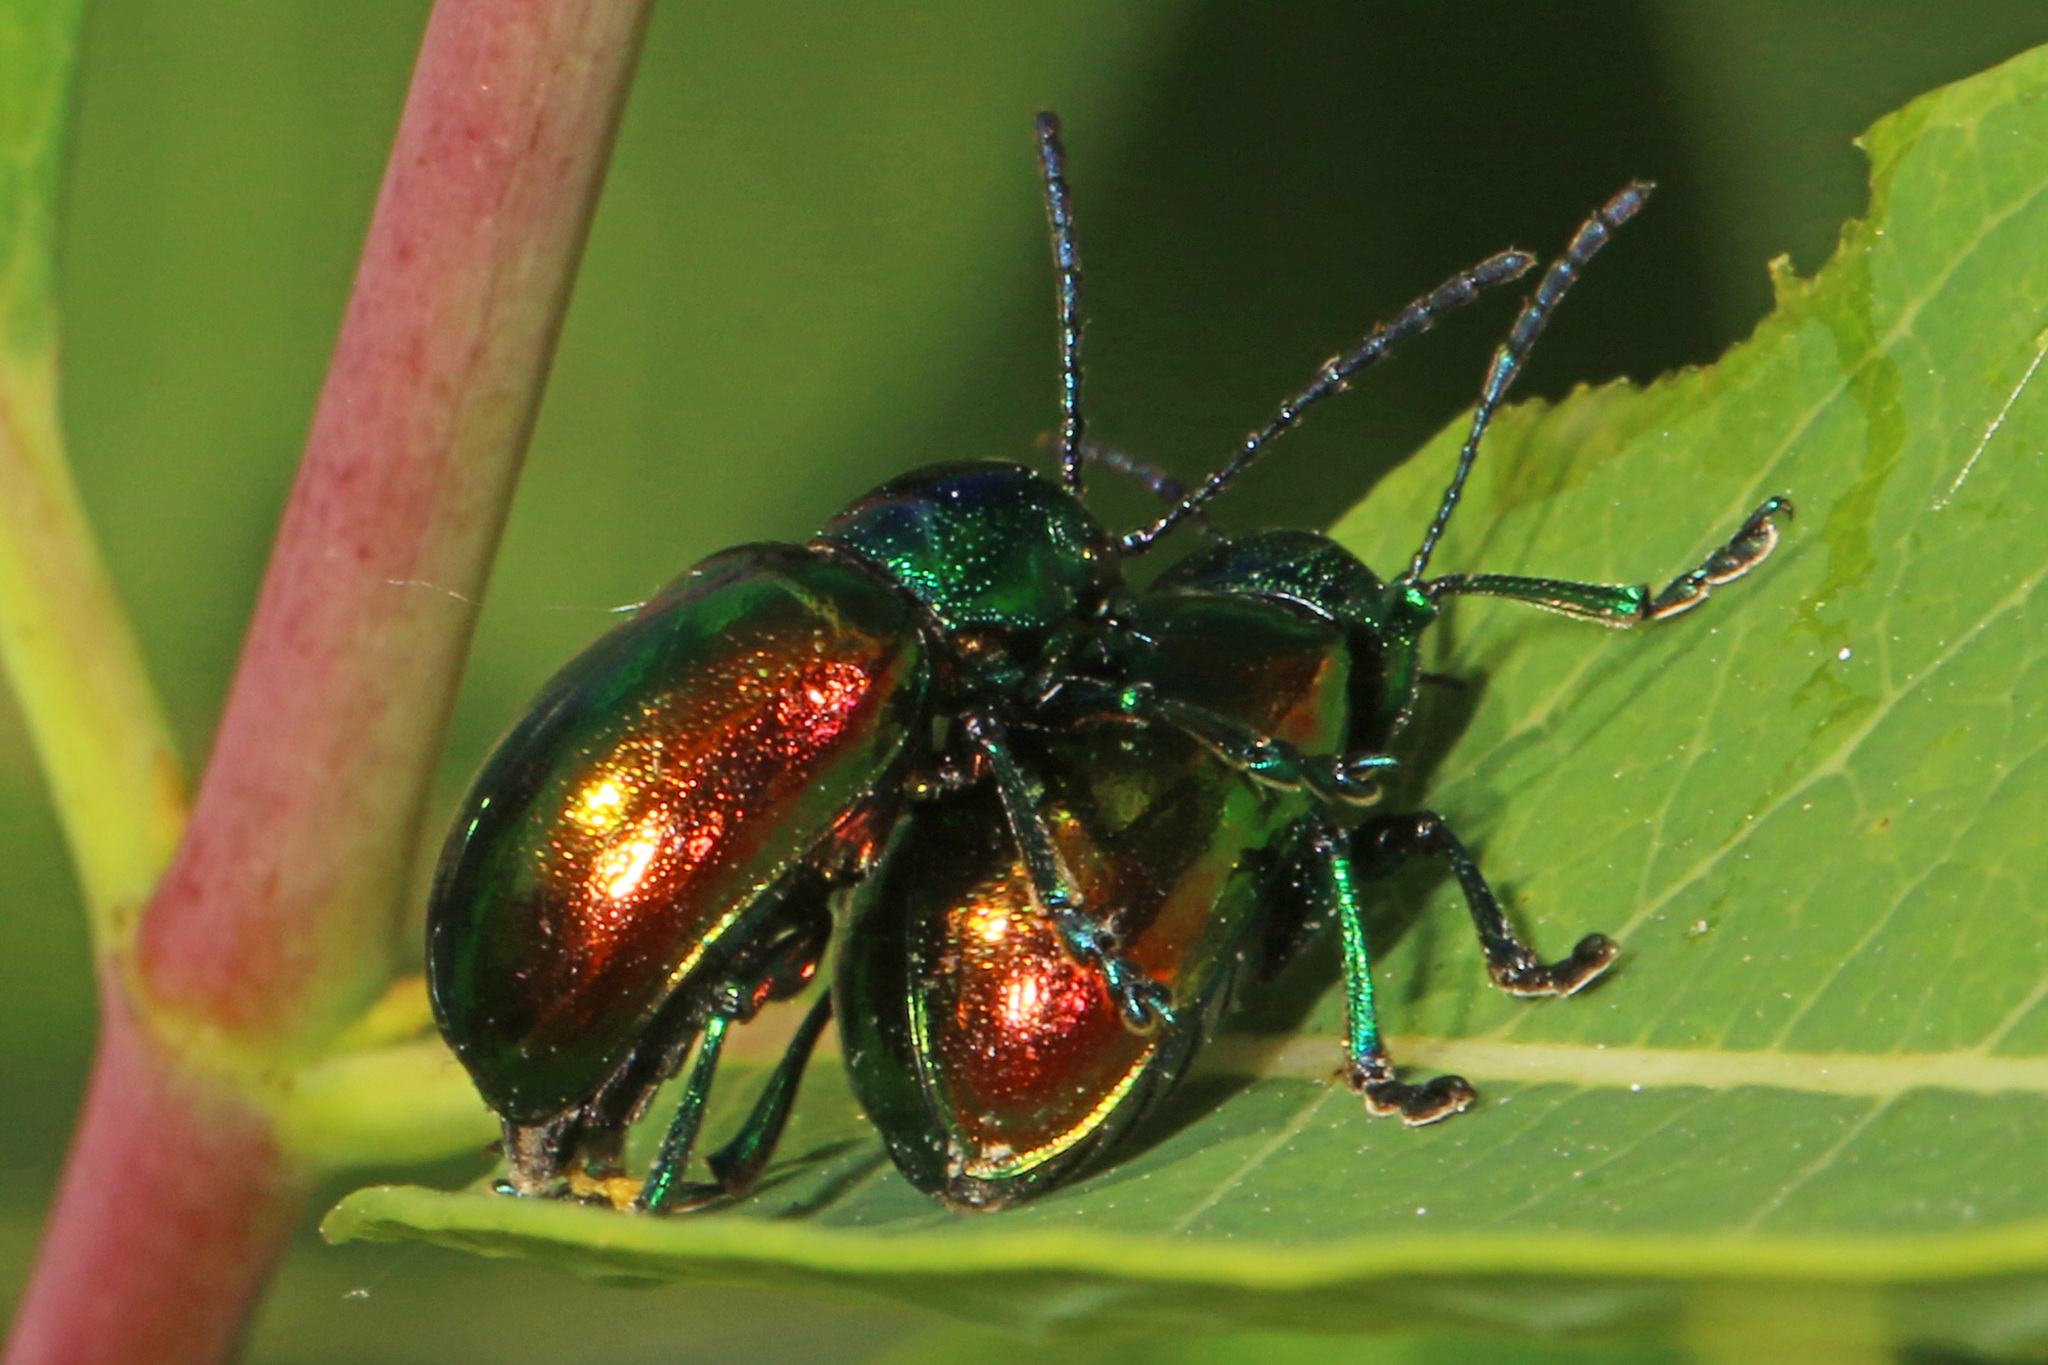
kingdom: Animalia
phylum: Arthropoda
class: Insecta
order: Coleoptera
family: Chrysomelidae
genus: Chrysochus
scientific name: Chrysochus auratus
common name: Dogbane leaf beetle
